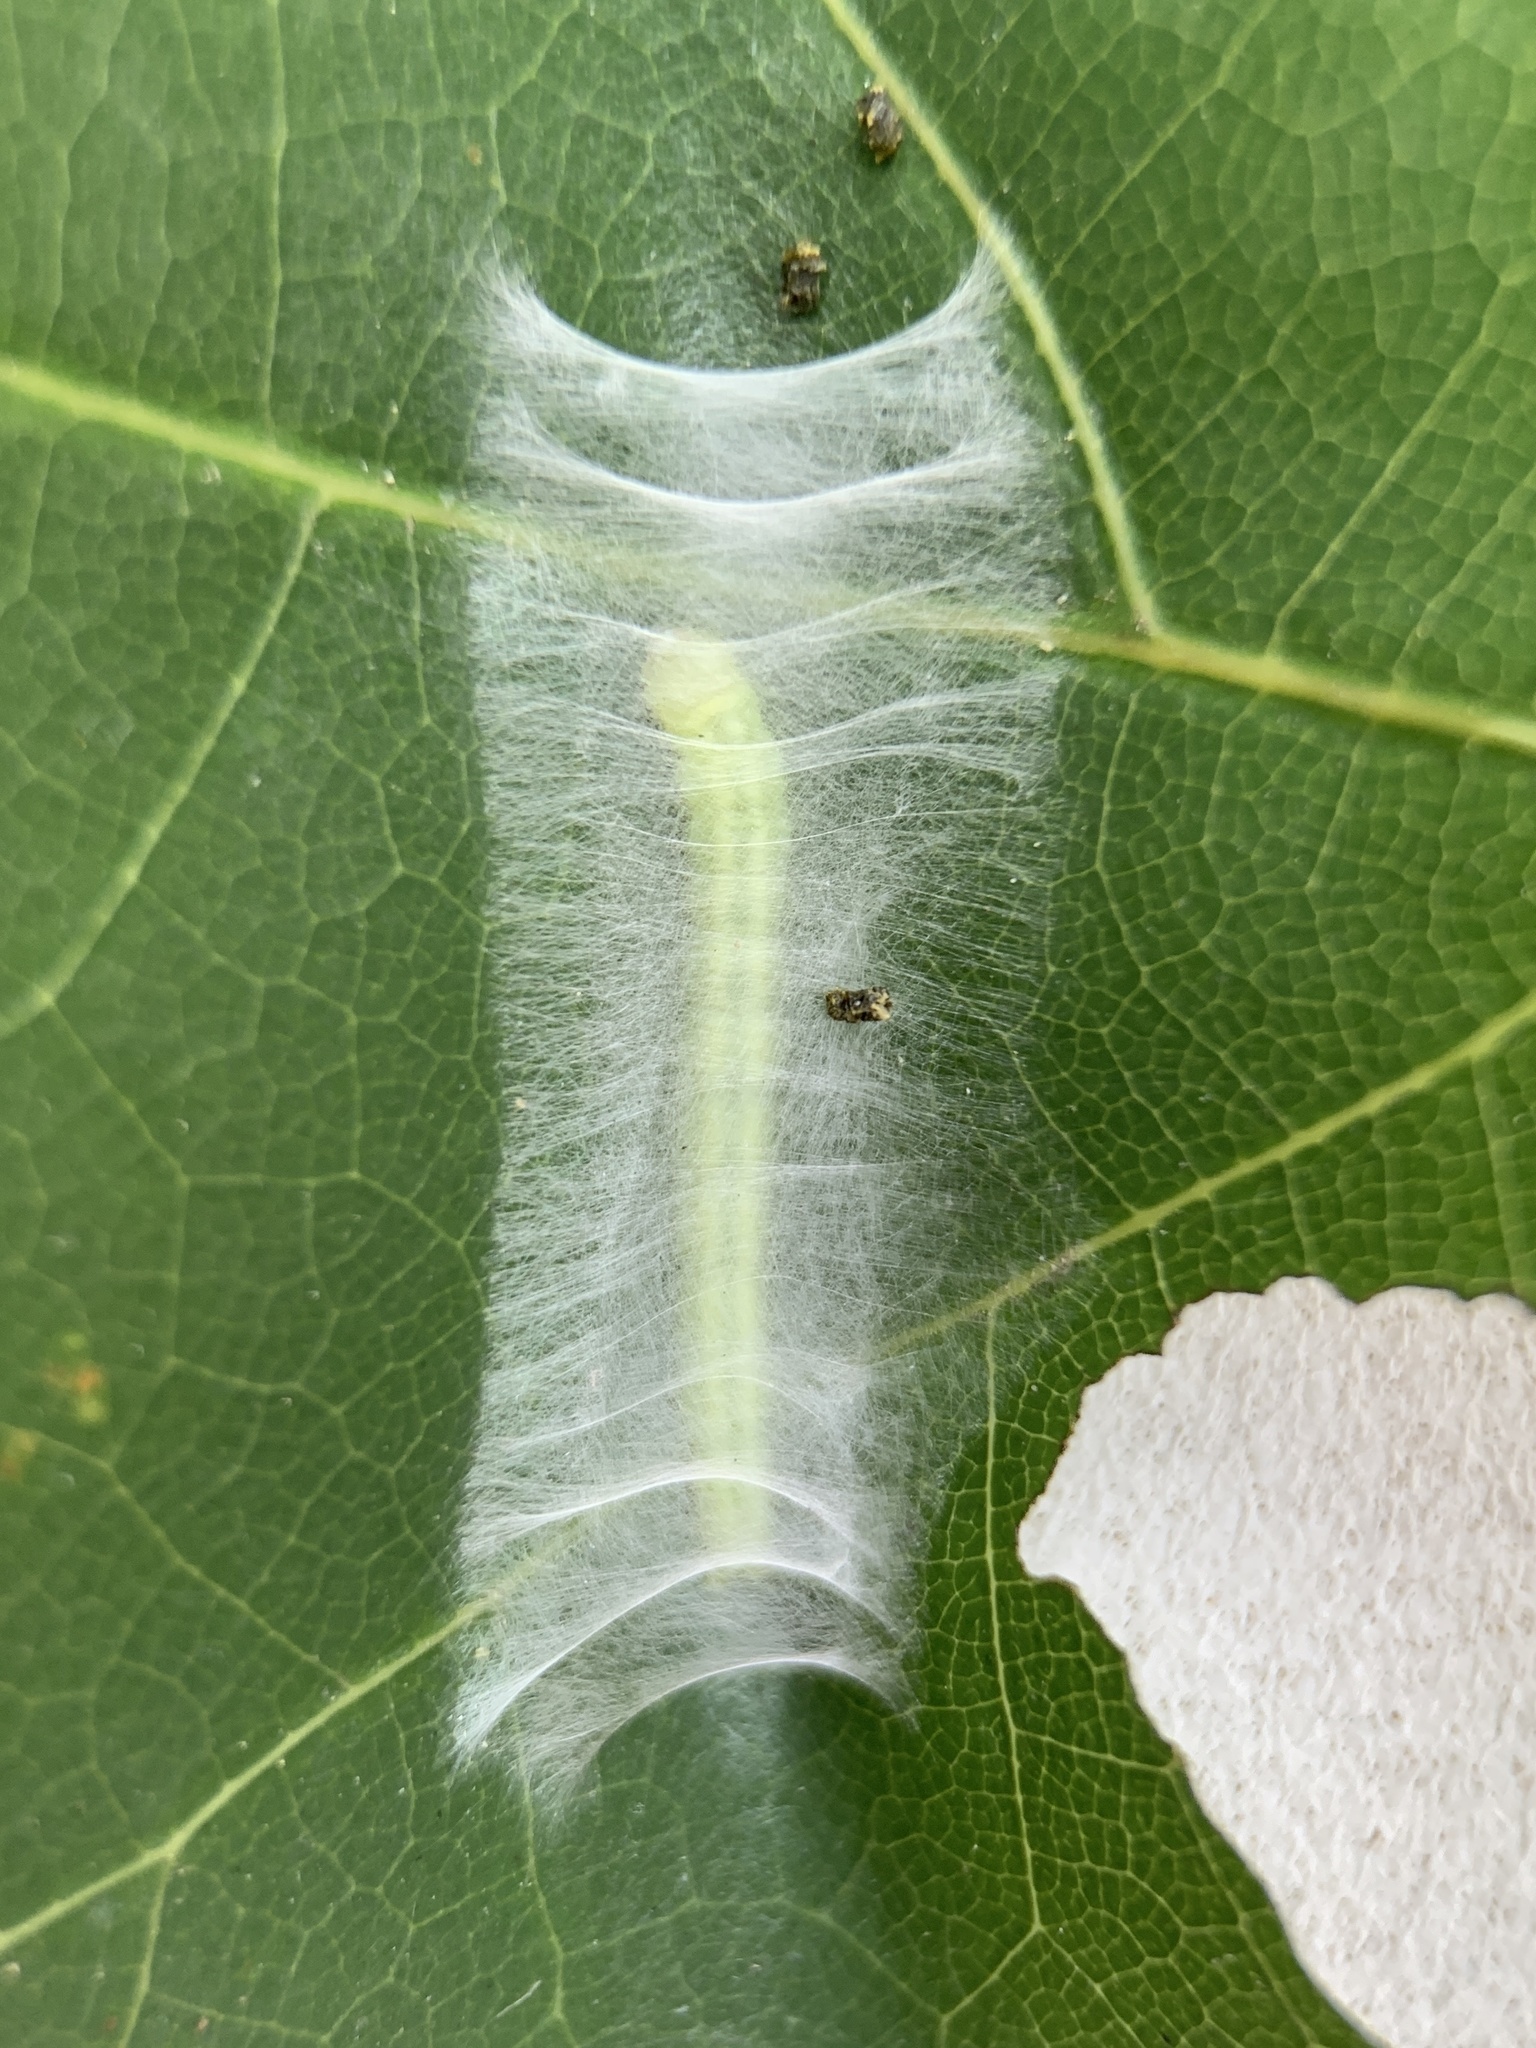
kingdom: Animalia
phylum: Arthropoda
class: Insecta
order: Lepidoptera
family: Peleopodidae
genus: Machimia
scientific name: Machimia tentoriferella
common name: Gold-striped leaftier moth
